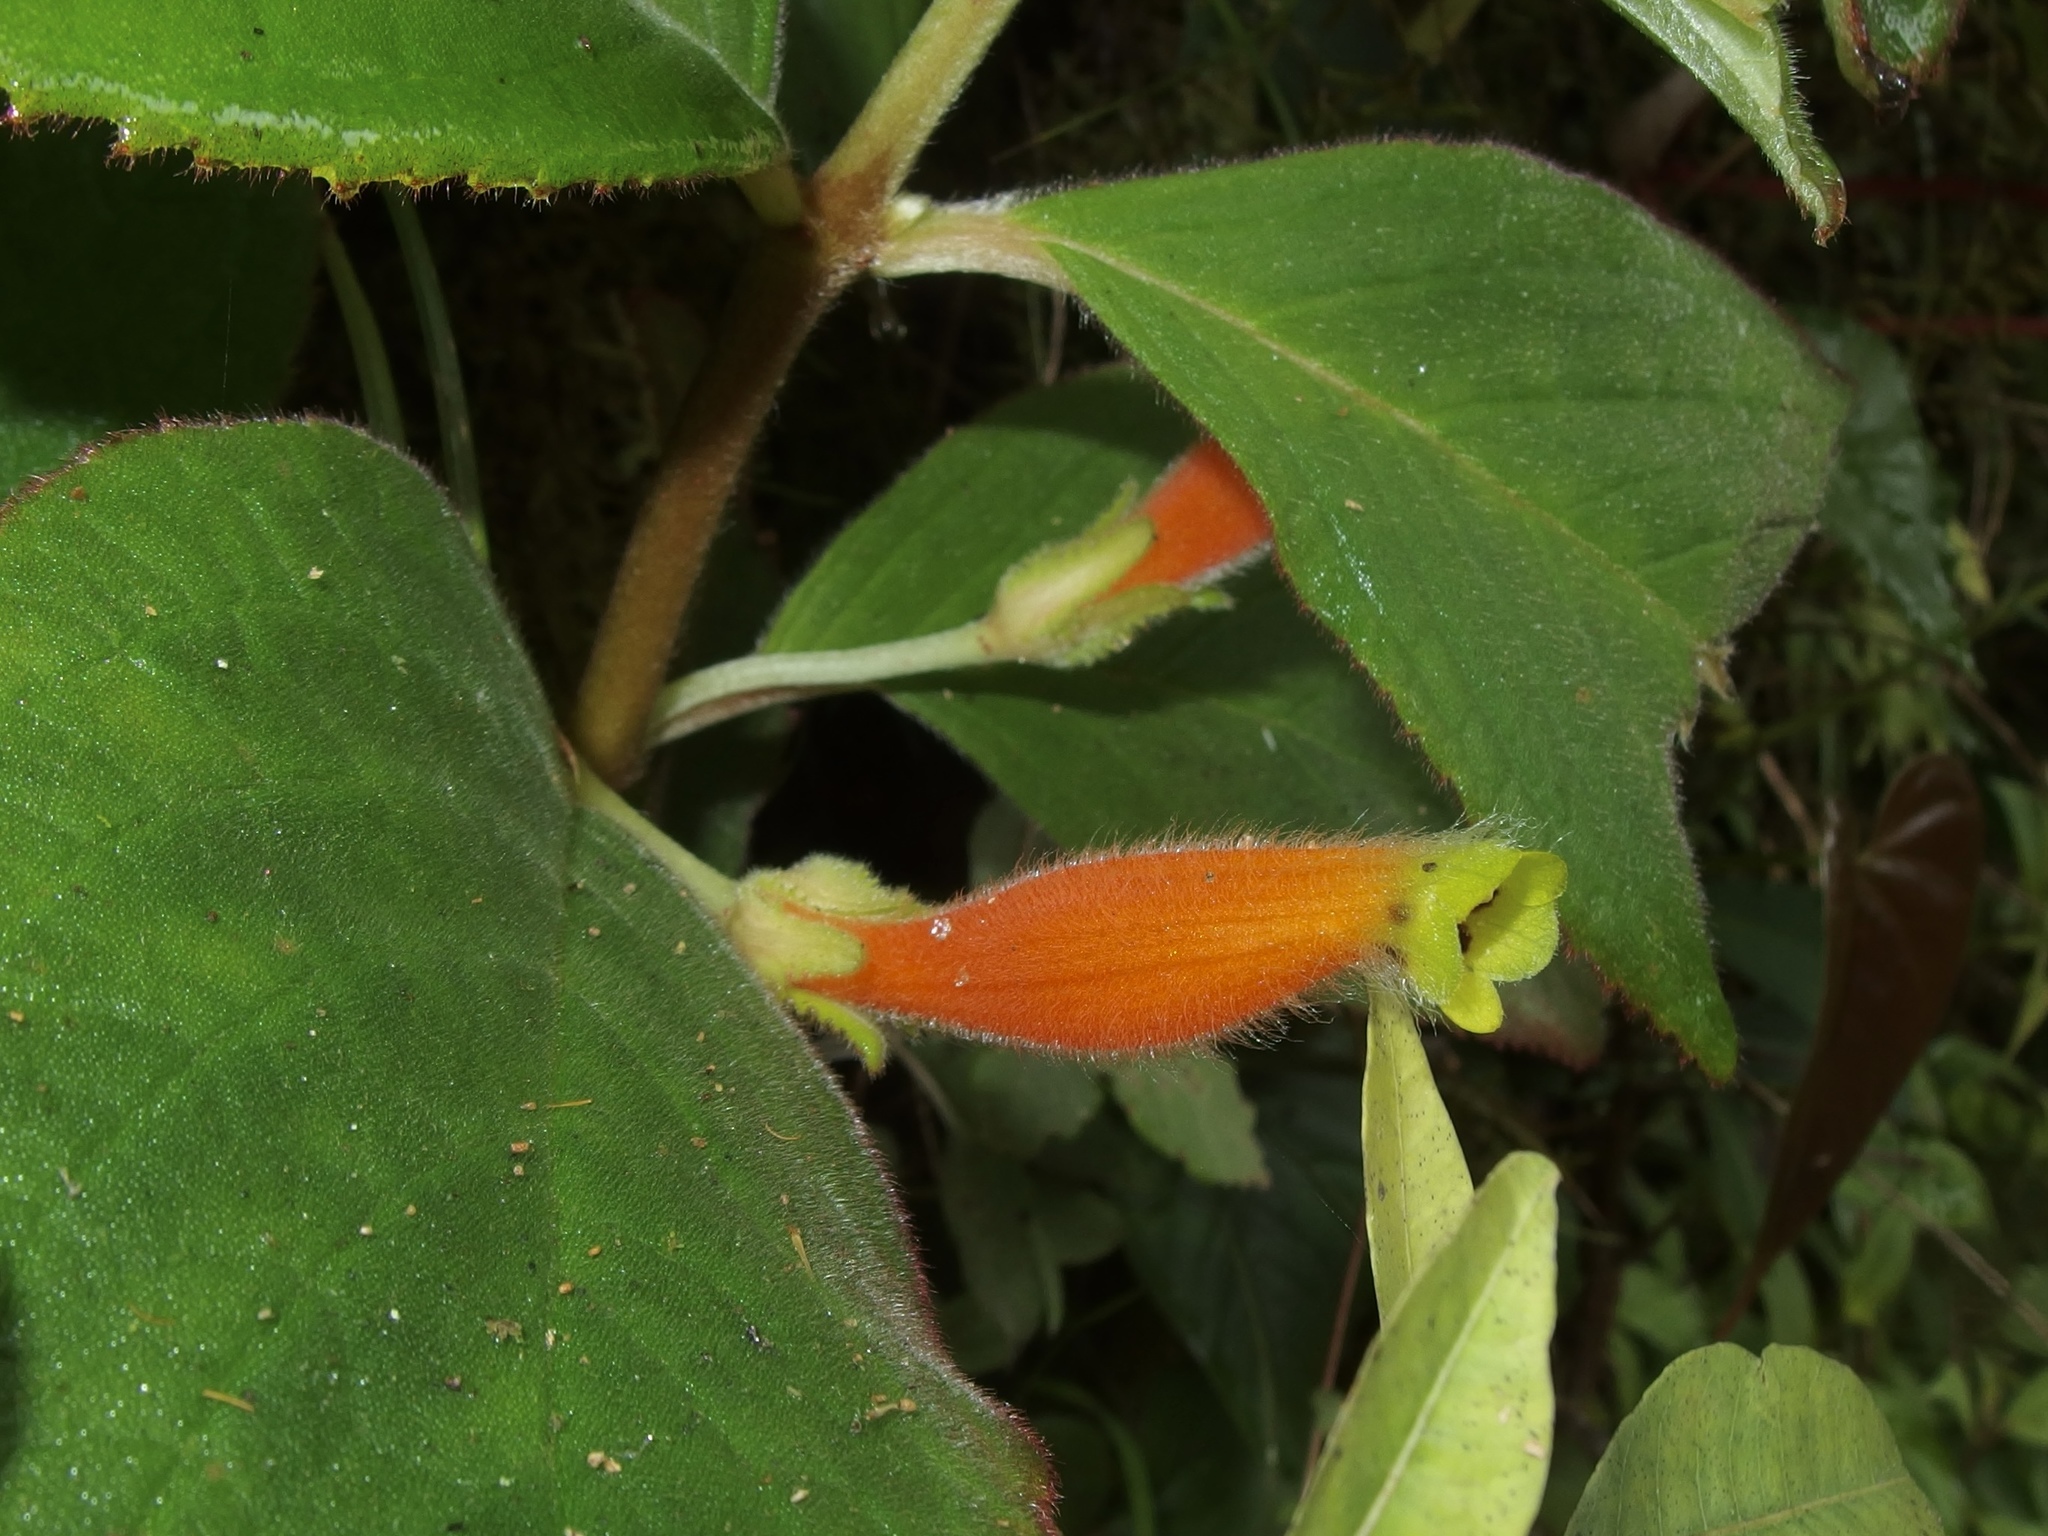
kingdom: Plantae
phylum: Tracheophyta
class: Magnoliopsida
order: Lamiales
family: Gesneriaceae
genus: Columnea
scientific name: Columnea poortmannii
